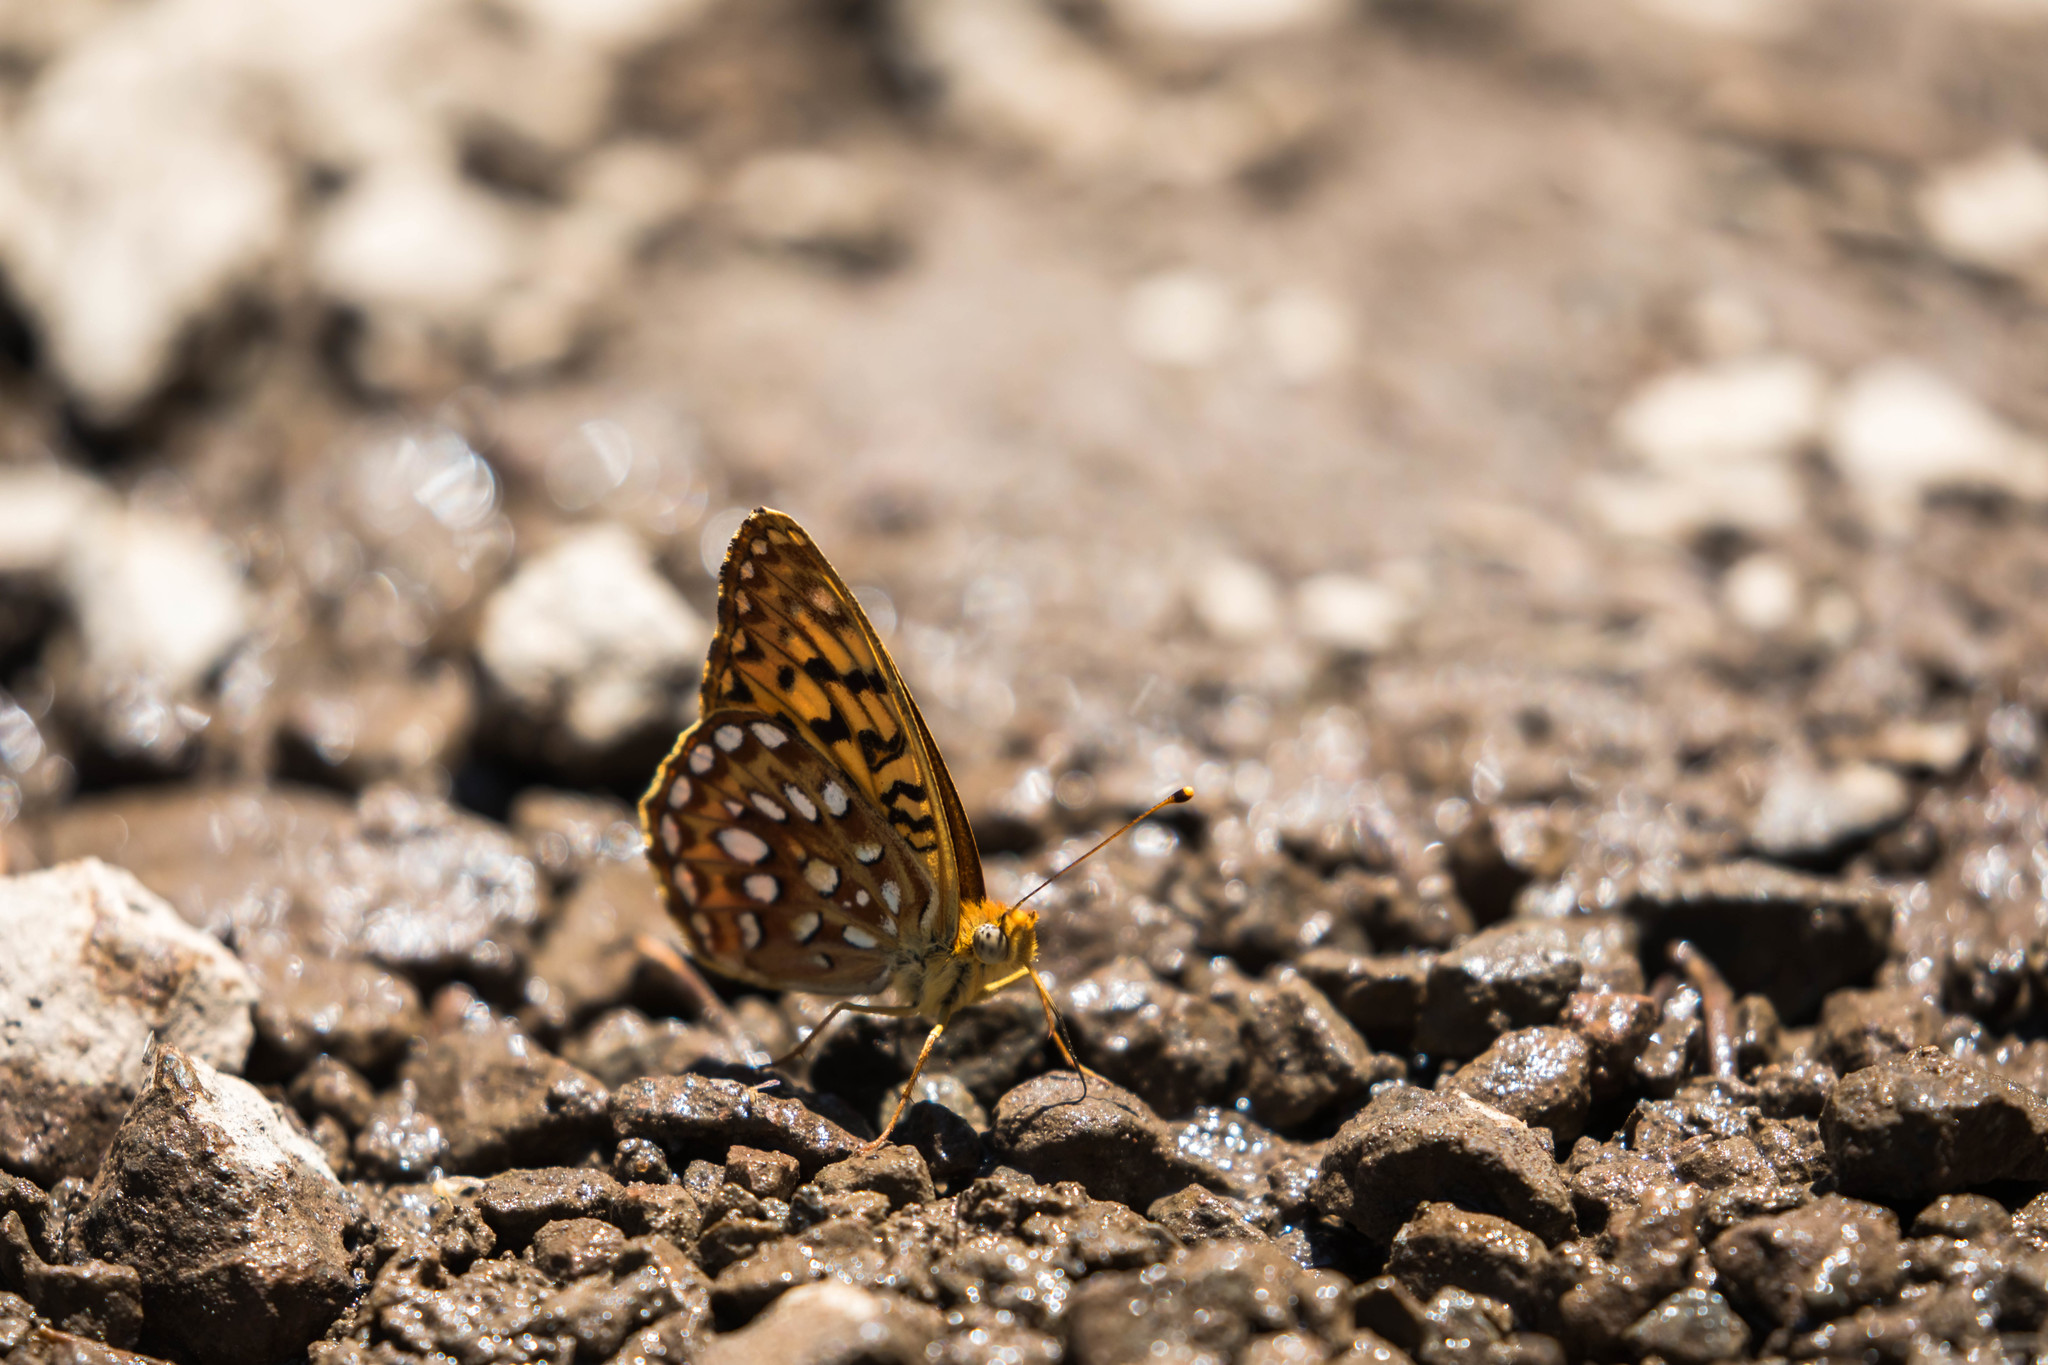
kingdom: Animalia
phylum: Arthropoda
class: Insecta
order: Lepidoptera
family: Nymphalidae
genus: Speyeria
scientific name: Speyeria egleis
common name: Great basin fritillary
